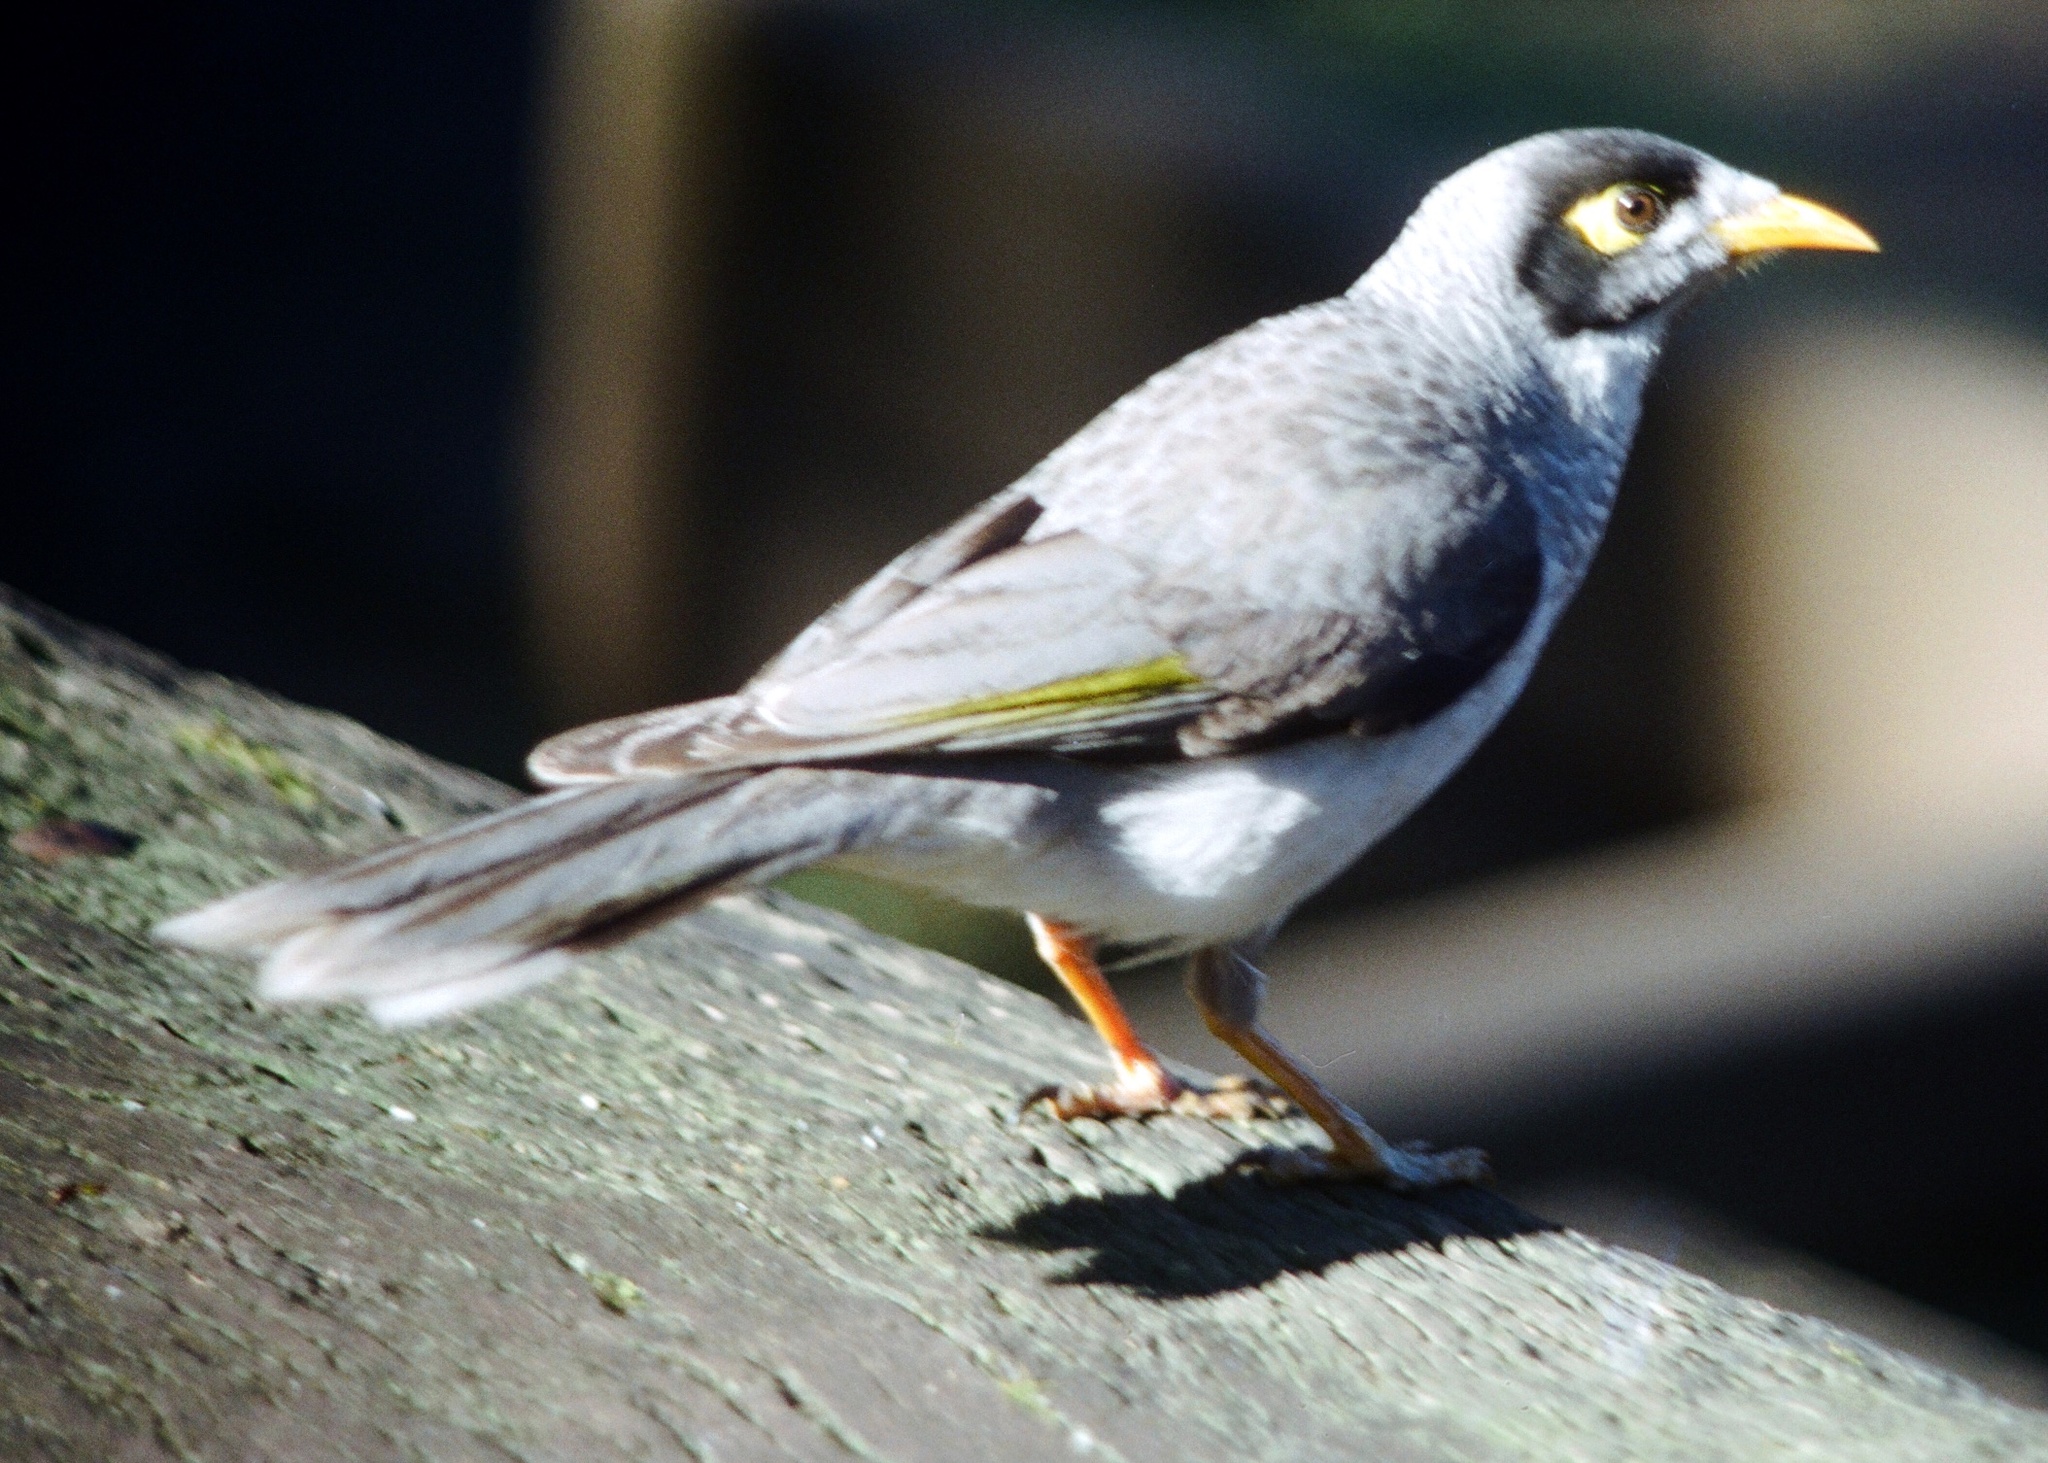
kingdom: Animalia
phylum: Chordata
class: Aves
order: Passeriformes
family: Meliphagidae
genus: Manorina
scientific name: Manorina melanocephala
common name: Noisy miner
